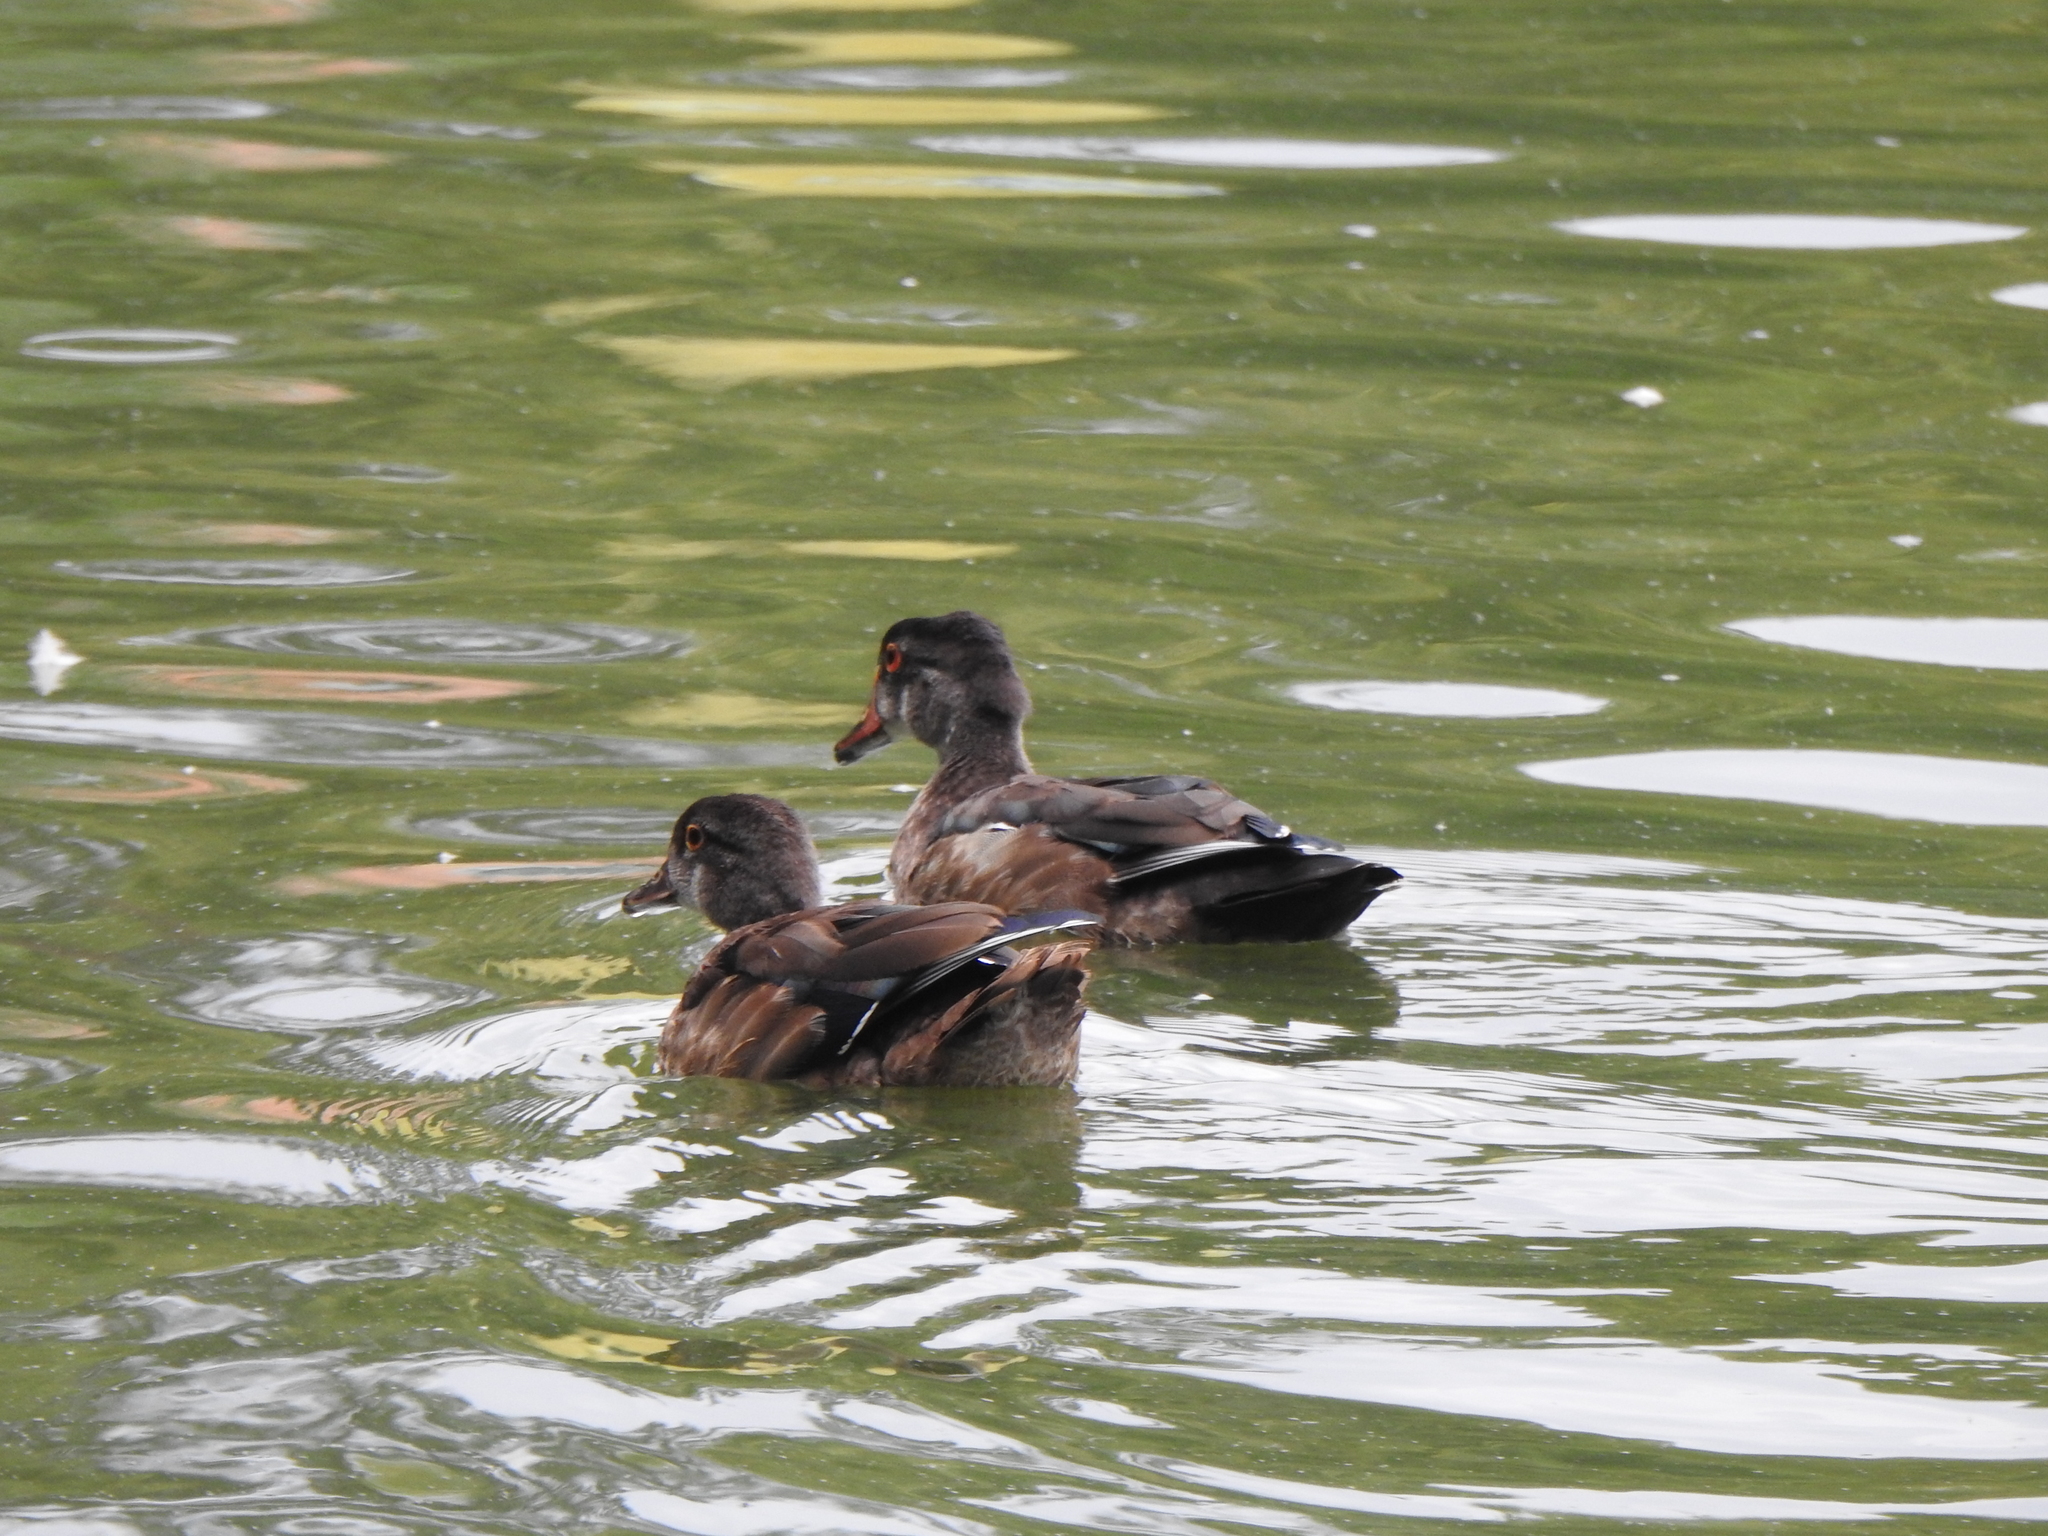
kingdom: Animalia
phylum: Chordata
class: Aves
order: Anseriformes
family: Anatidae
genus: Aix
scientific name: Aix sponsa
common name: Wood duck
